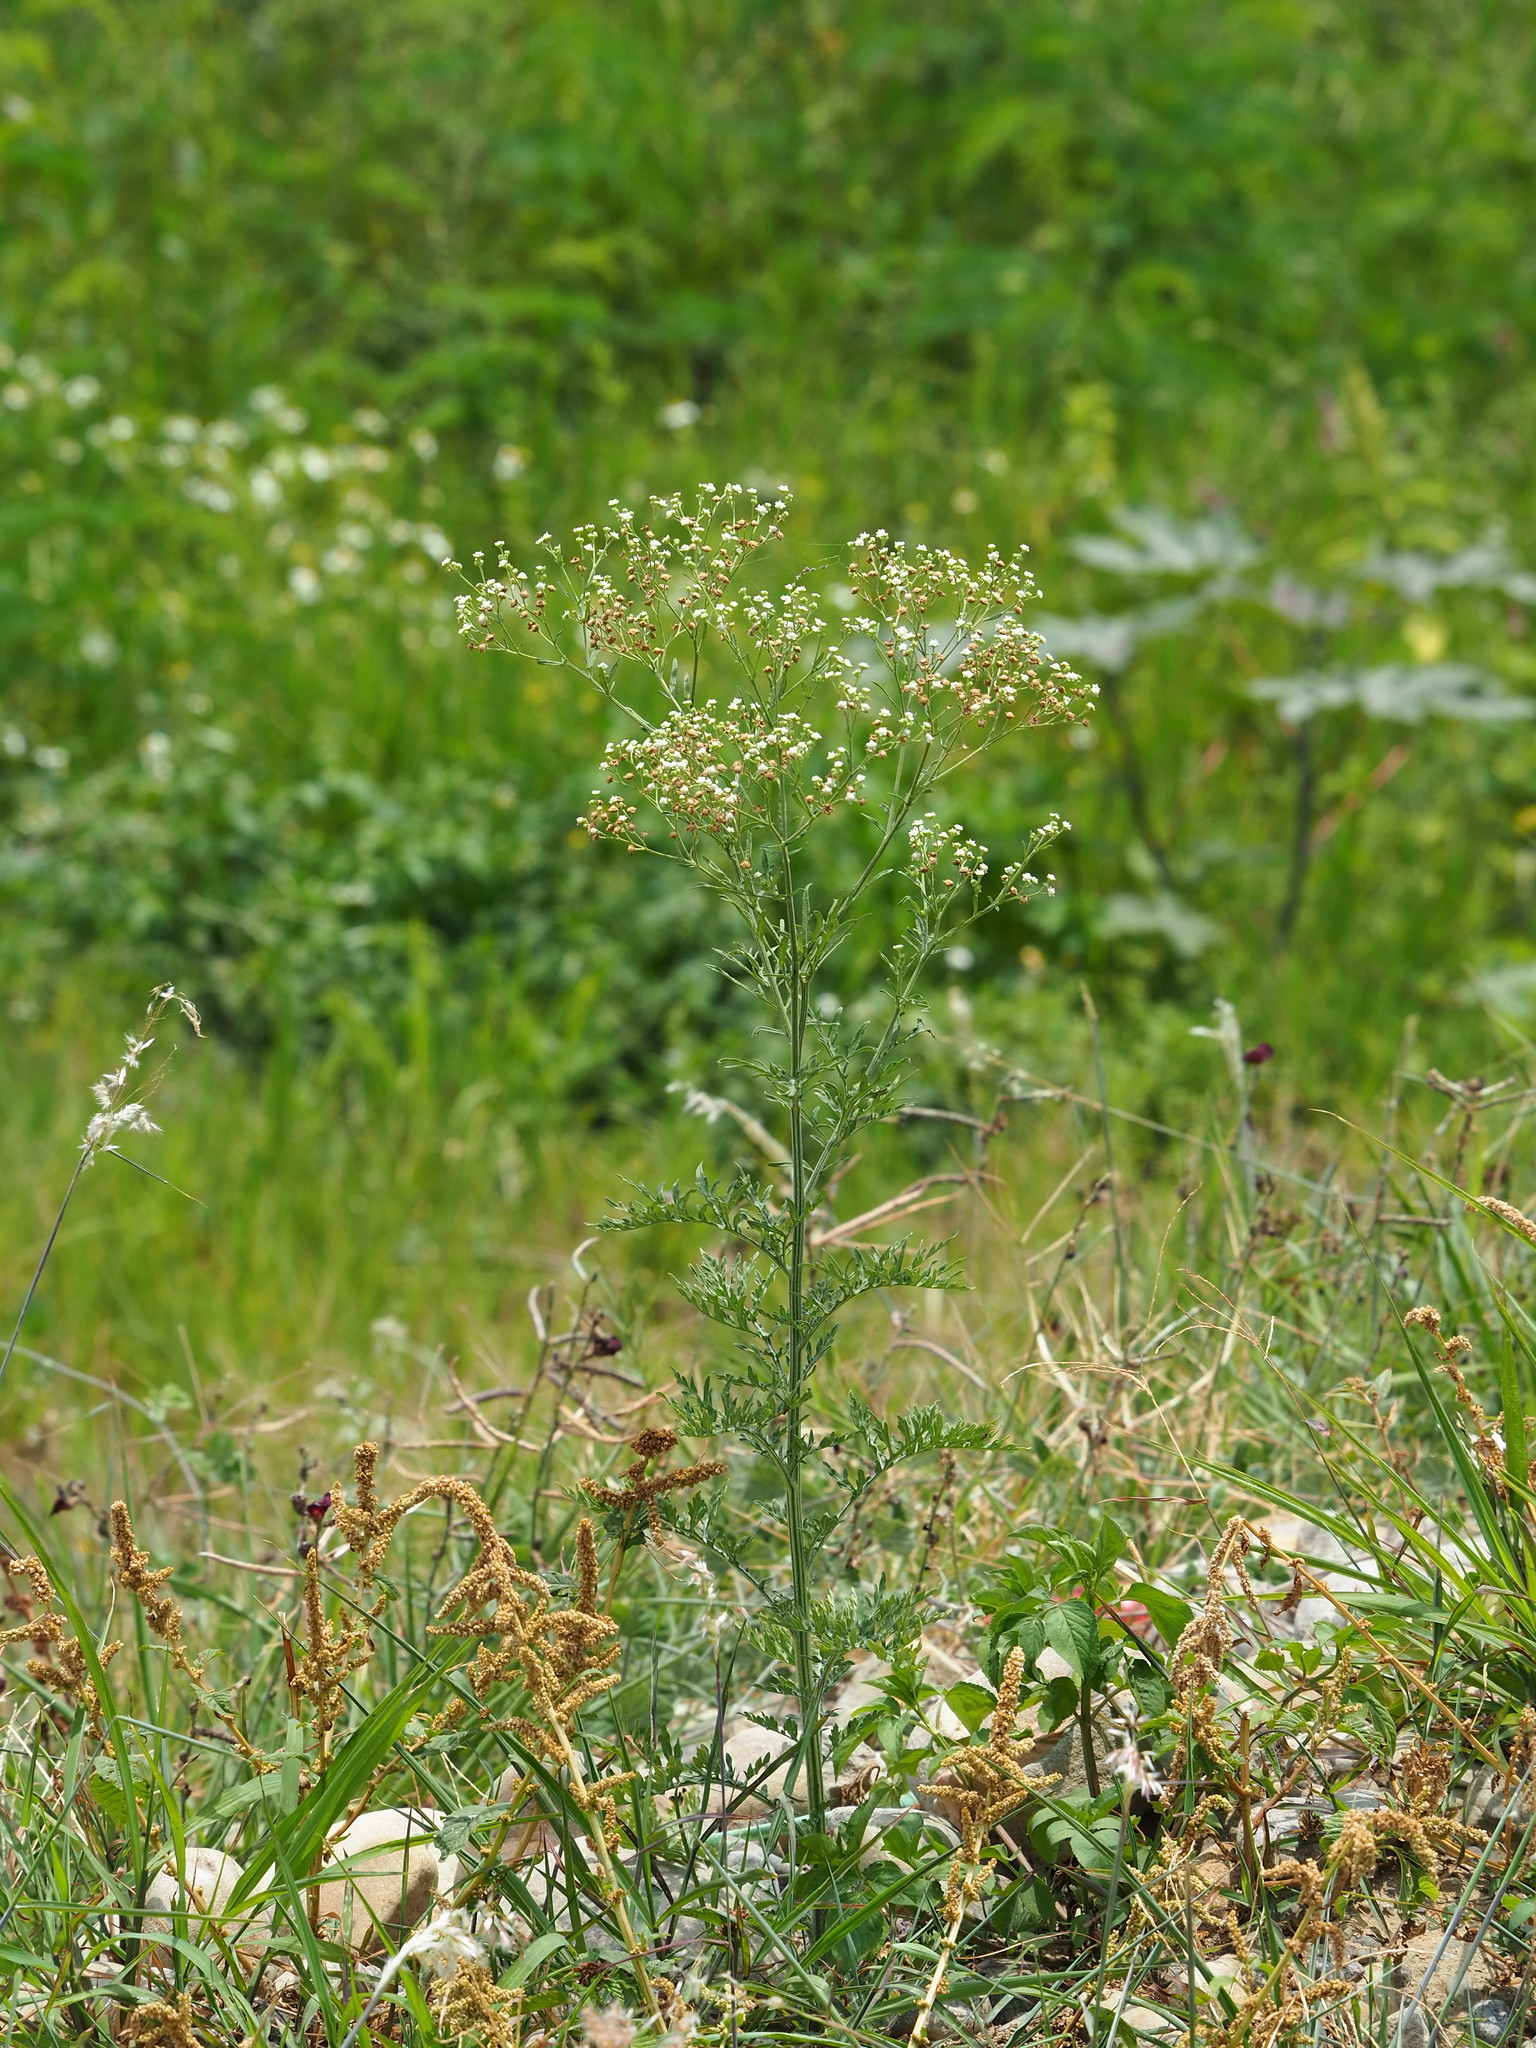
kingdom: Plantae
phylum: Tracheophyta
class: Magnoliopsida
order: Asterales
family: Asteraceae
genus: Parthenium
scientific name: Parthenium hysterophorus
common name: Santa maria feverfew
